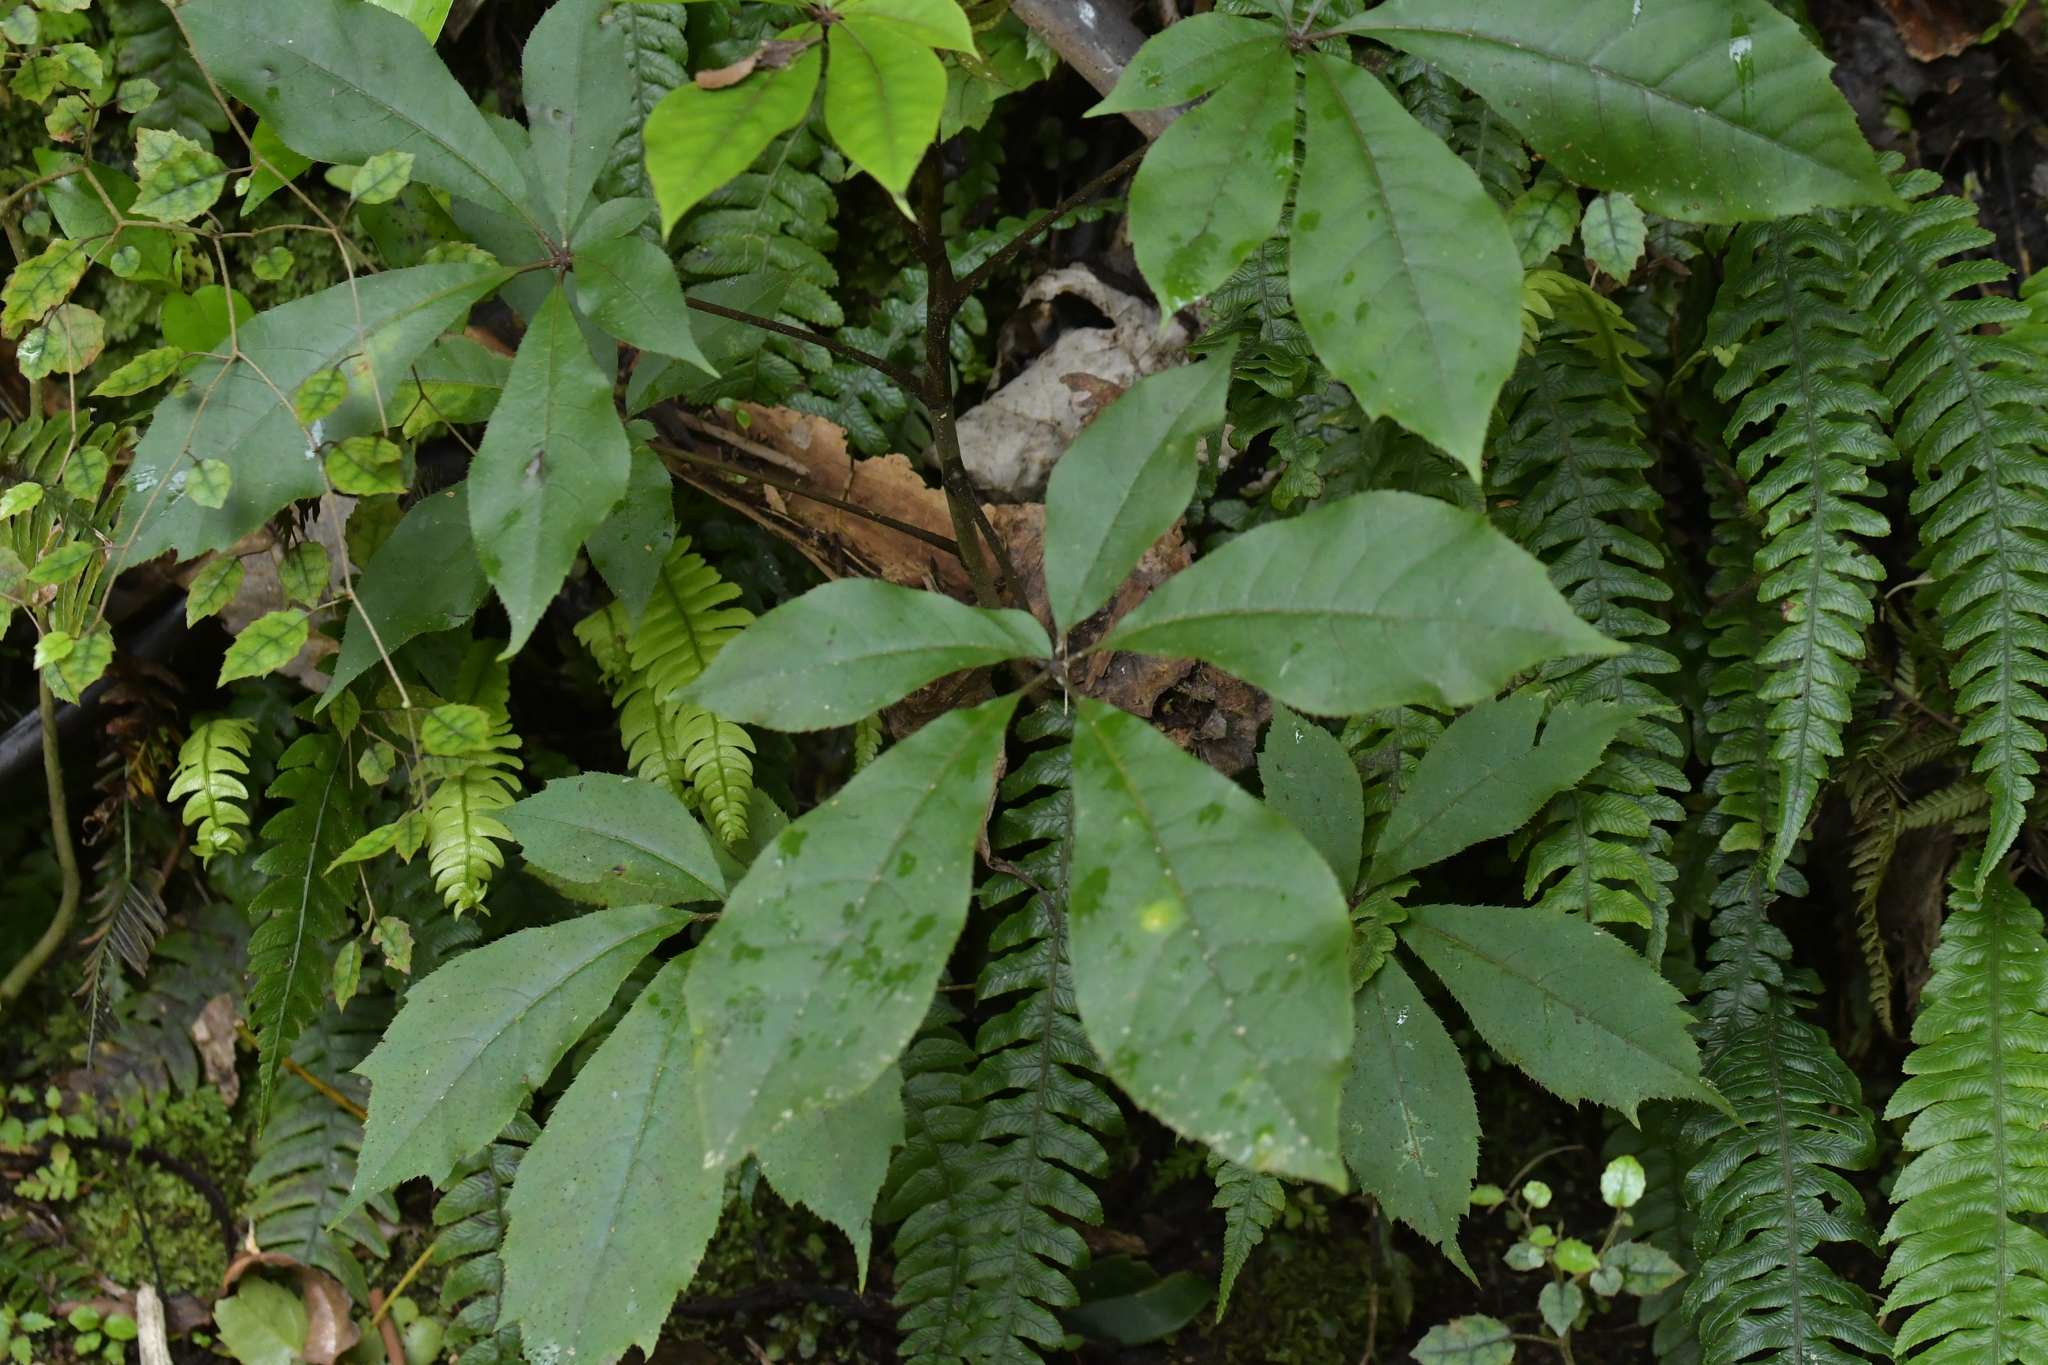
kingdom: Plantae
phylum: Tracheophyta
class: Magnoliopsida
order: Apiales
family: Araliaceae
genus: Schefflera
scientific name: Schefflera digitata
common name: Pate
